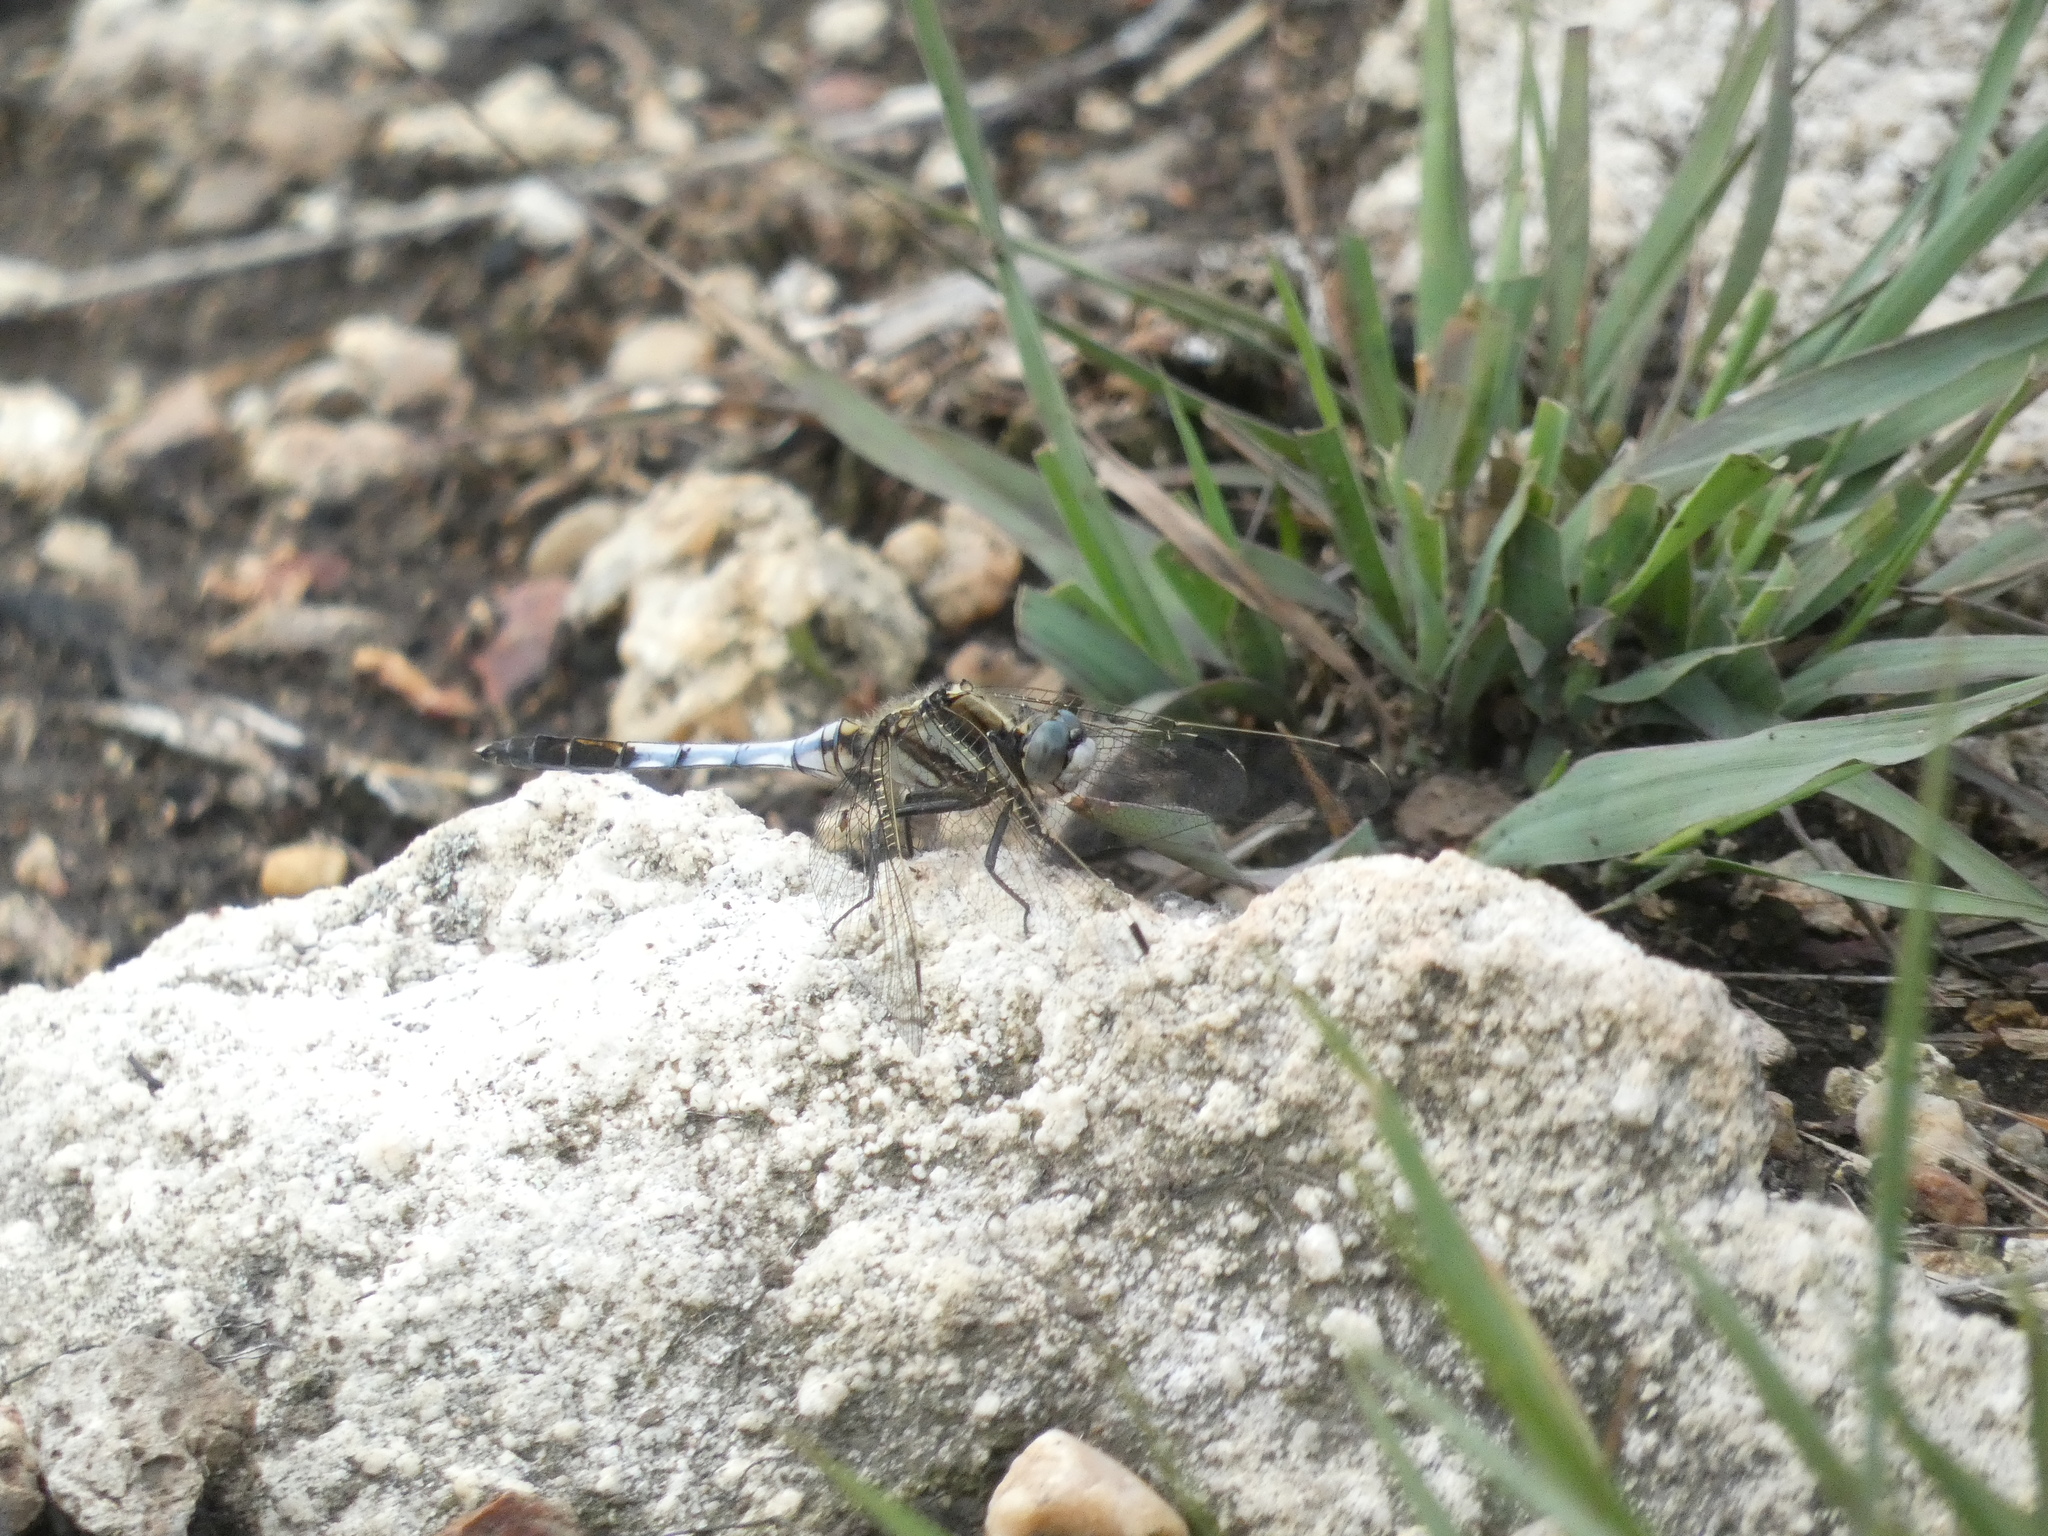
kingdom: Animalia
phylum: Arthropoda
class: Insecta
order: Odonata
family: Libellulidae
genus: Orthetrum
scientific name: Orthetrum albistylum
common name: White-tailed skimmer
